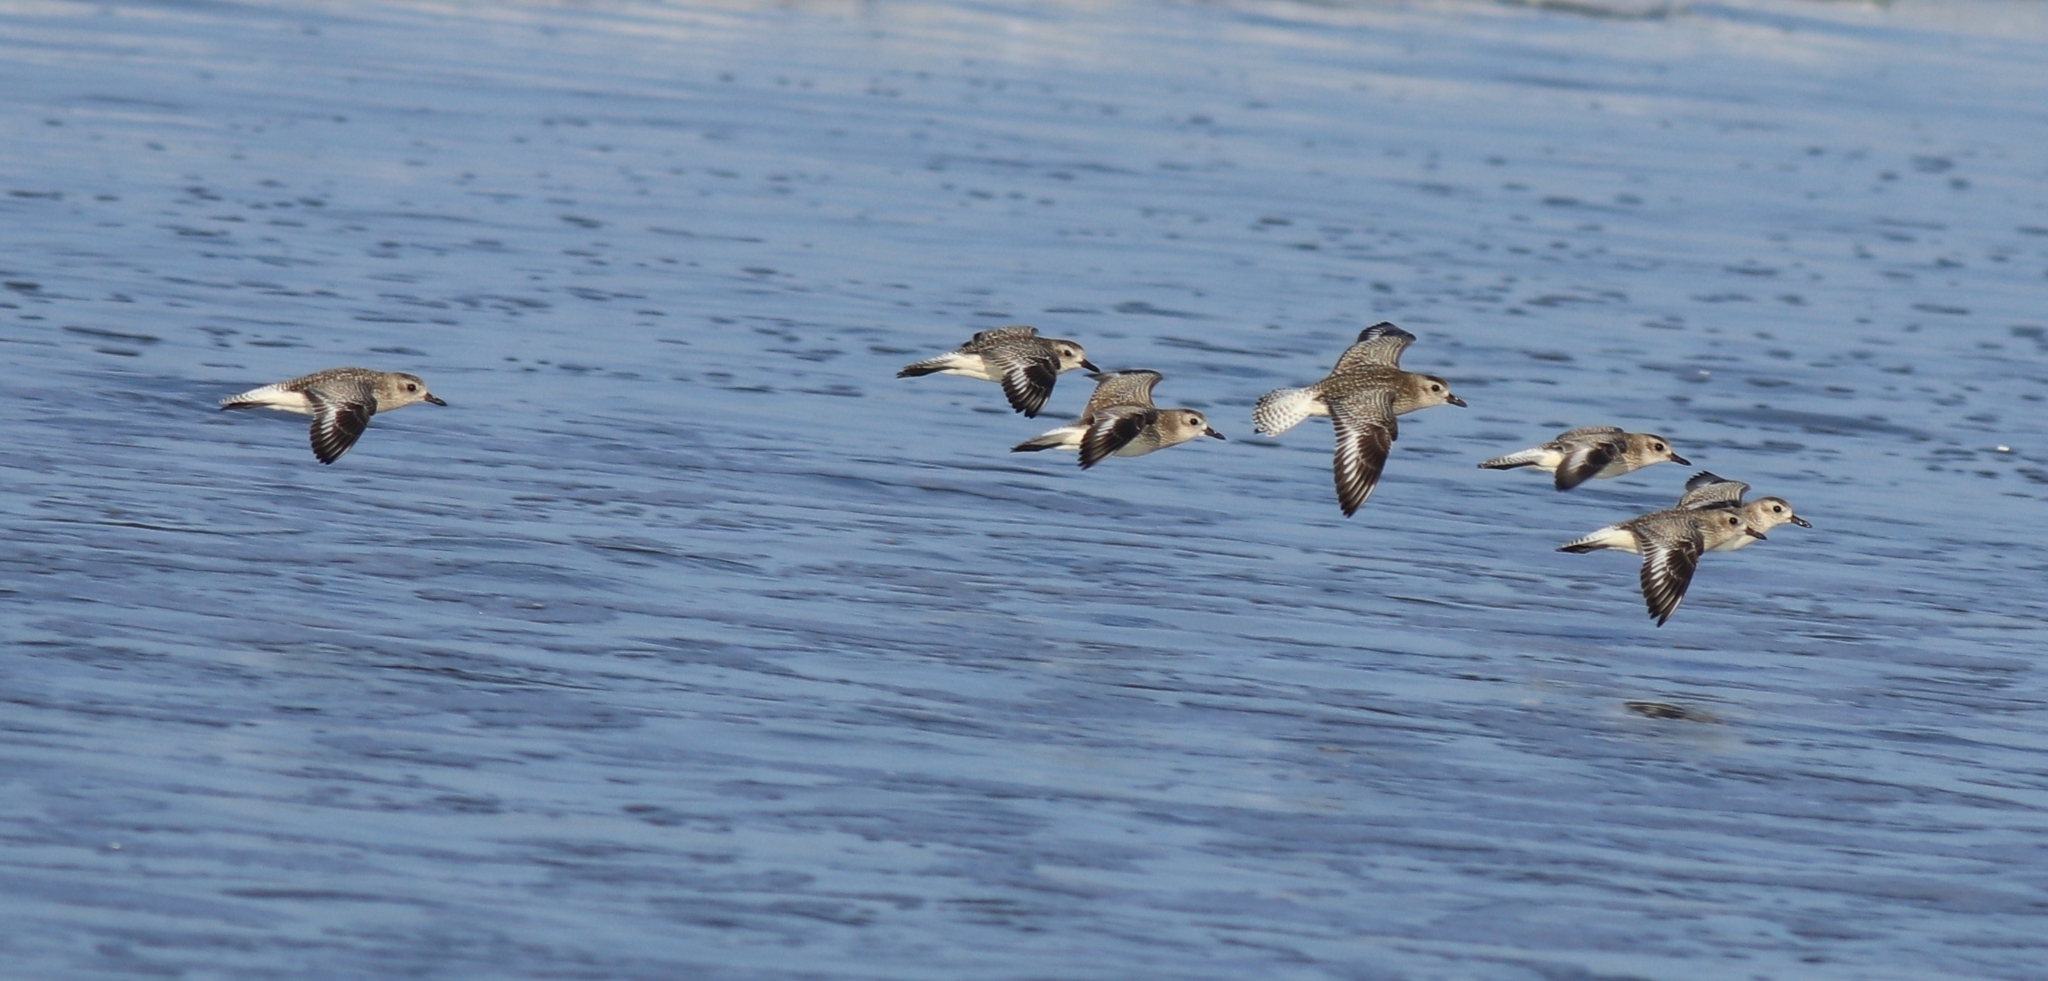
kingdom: Animalia
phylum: Chordata
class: Aves
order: Charadriiformes
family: Charadriidae
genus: Pluvialis
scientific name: Pluvialis squatarola
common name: Grey plover
